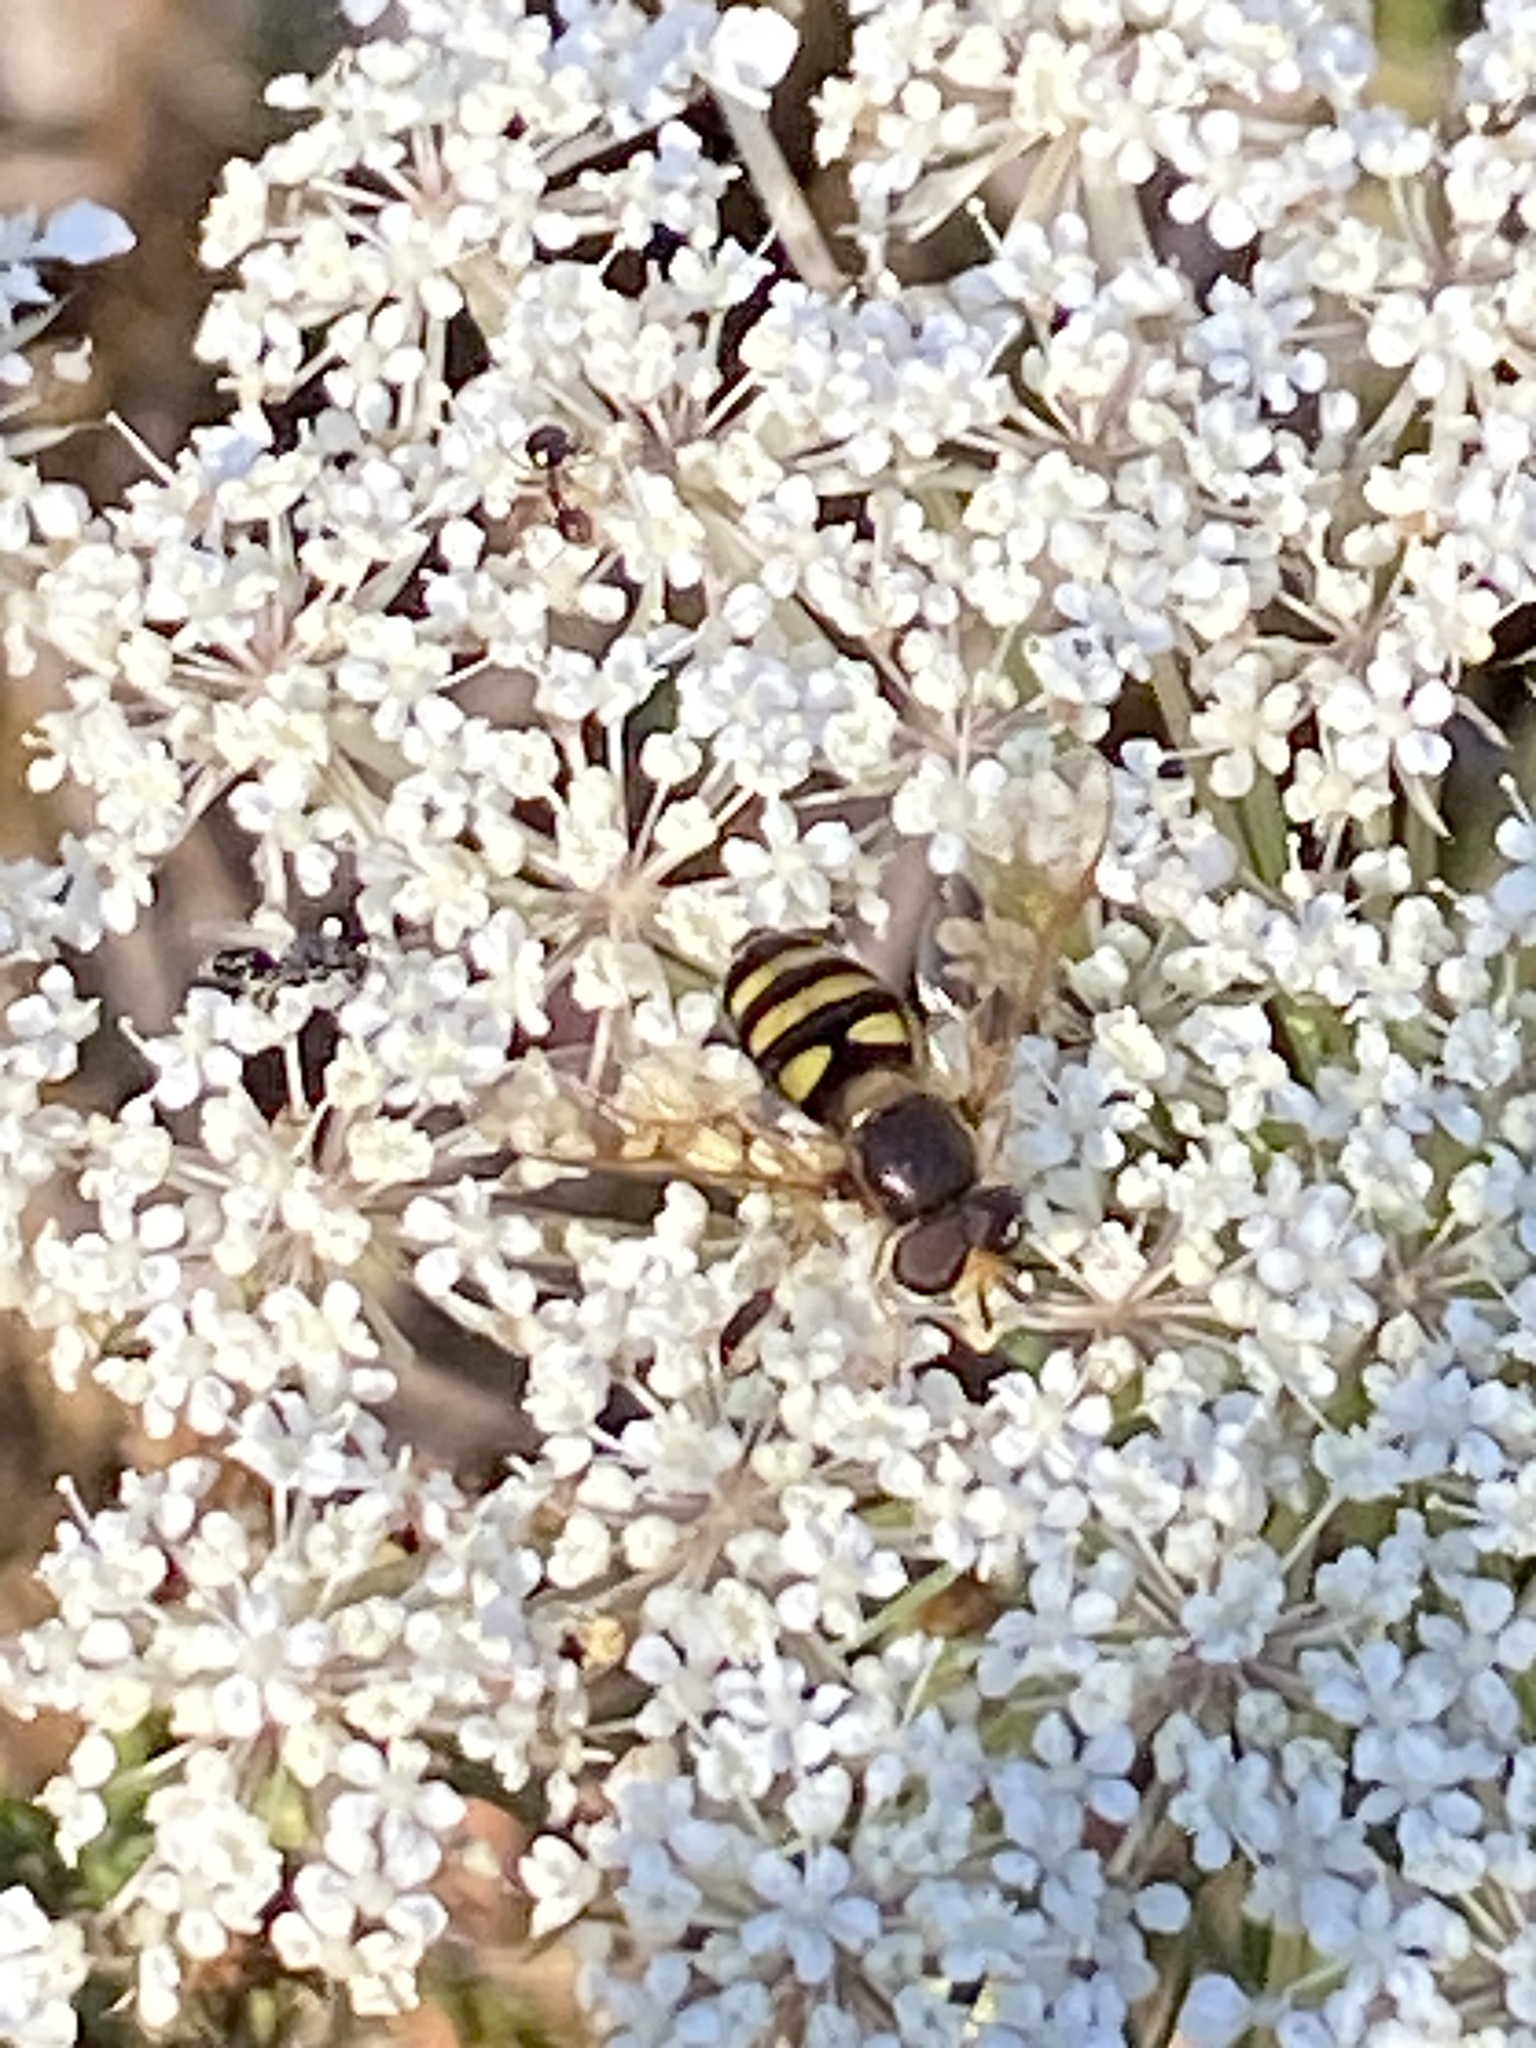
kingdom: Animalia
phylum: Arthropoda
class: Insecta
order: Diptera
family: Syrphidae
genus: Eupeodes
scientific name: Eupeodes
